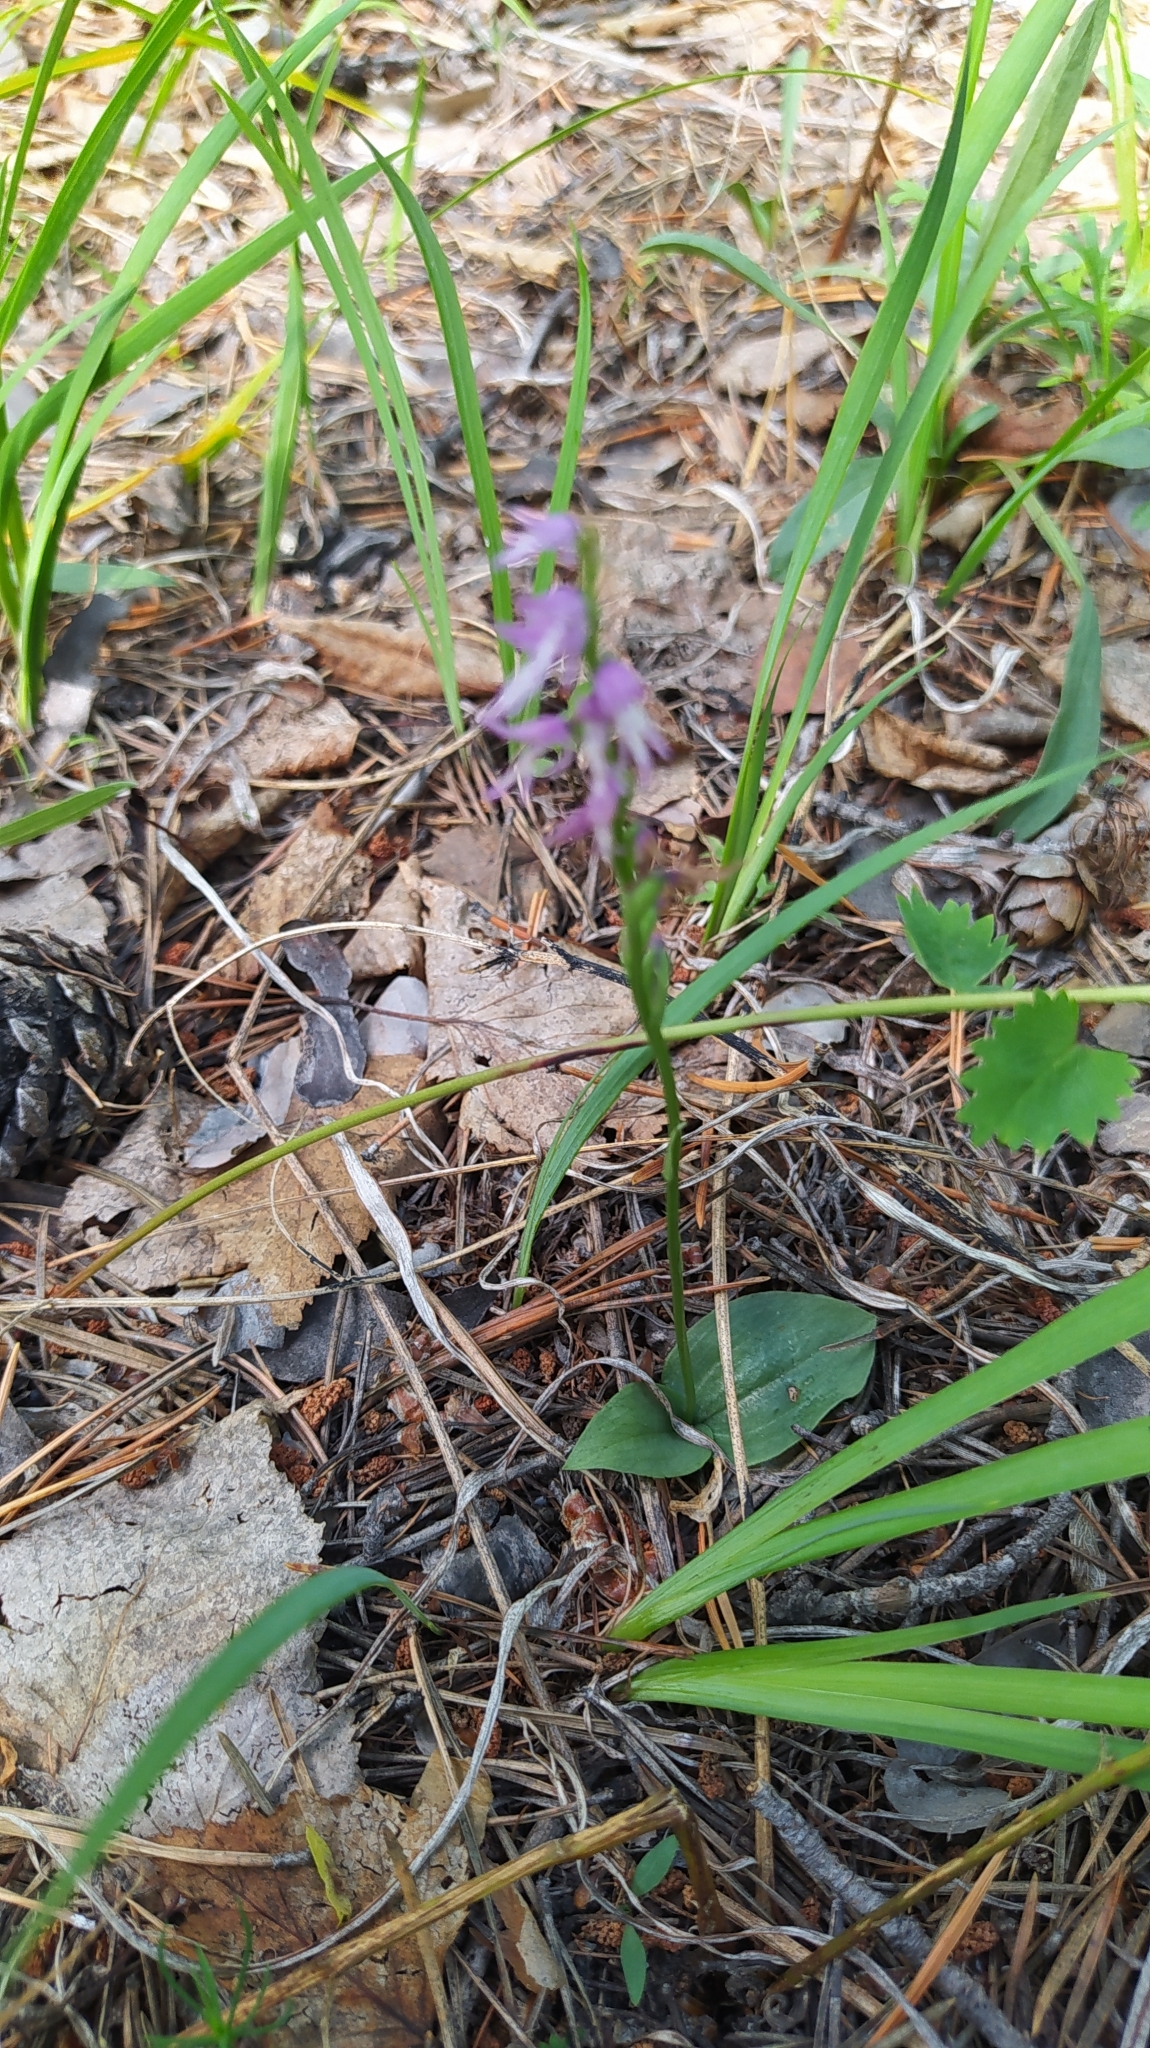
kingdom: Plantae
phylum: Tracheophyta
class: Liliopsida
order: Asparagales
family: Orchidaceae
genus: Hemipilia
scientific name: Hemipilia cucullata
